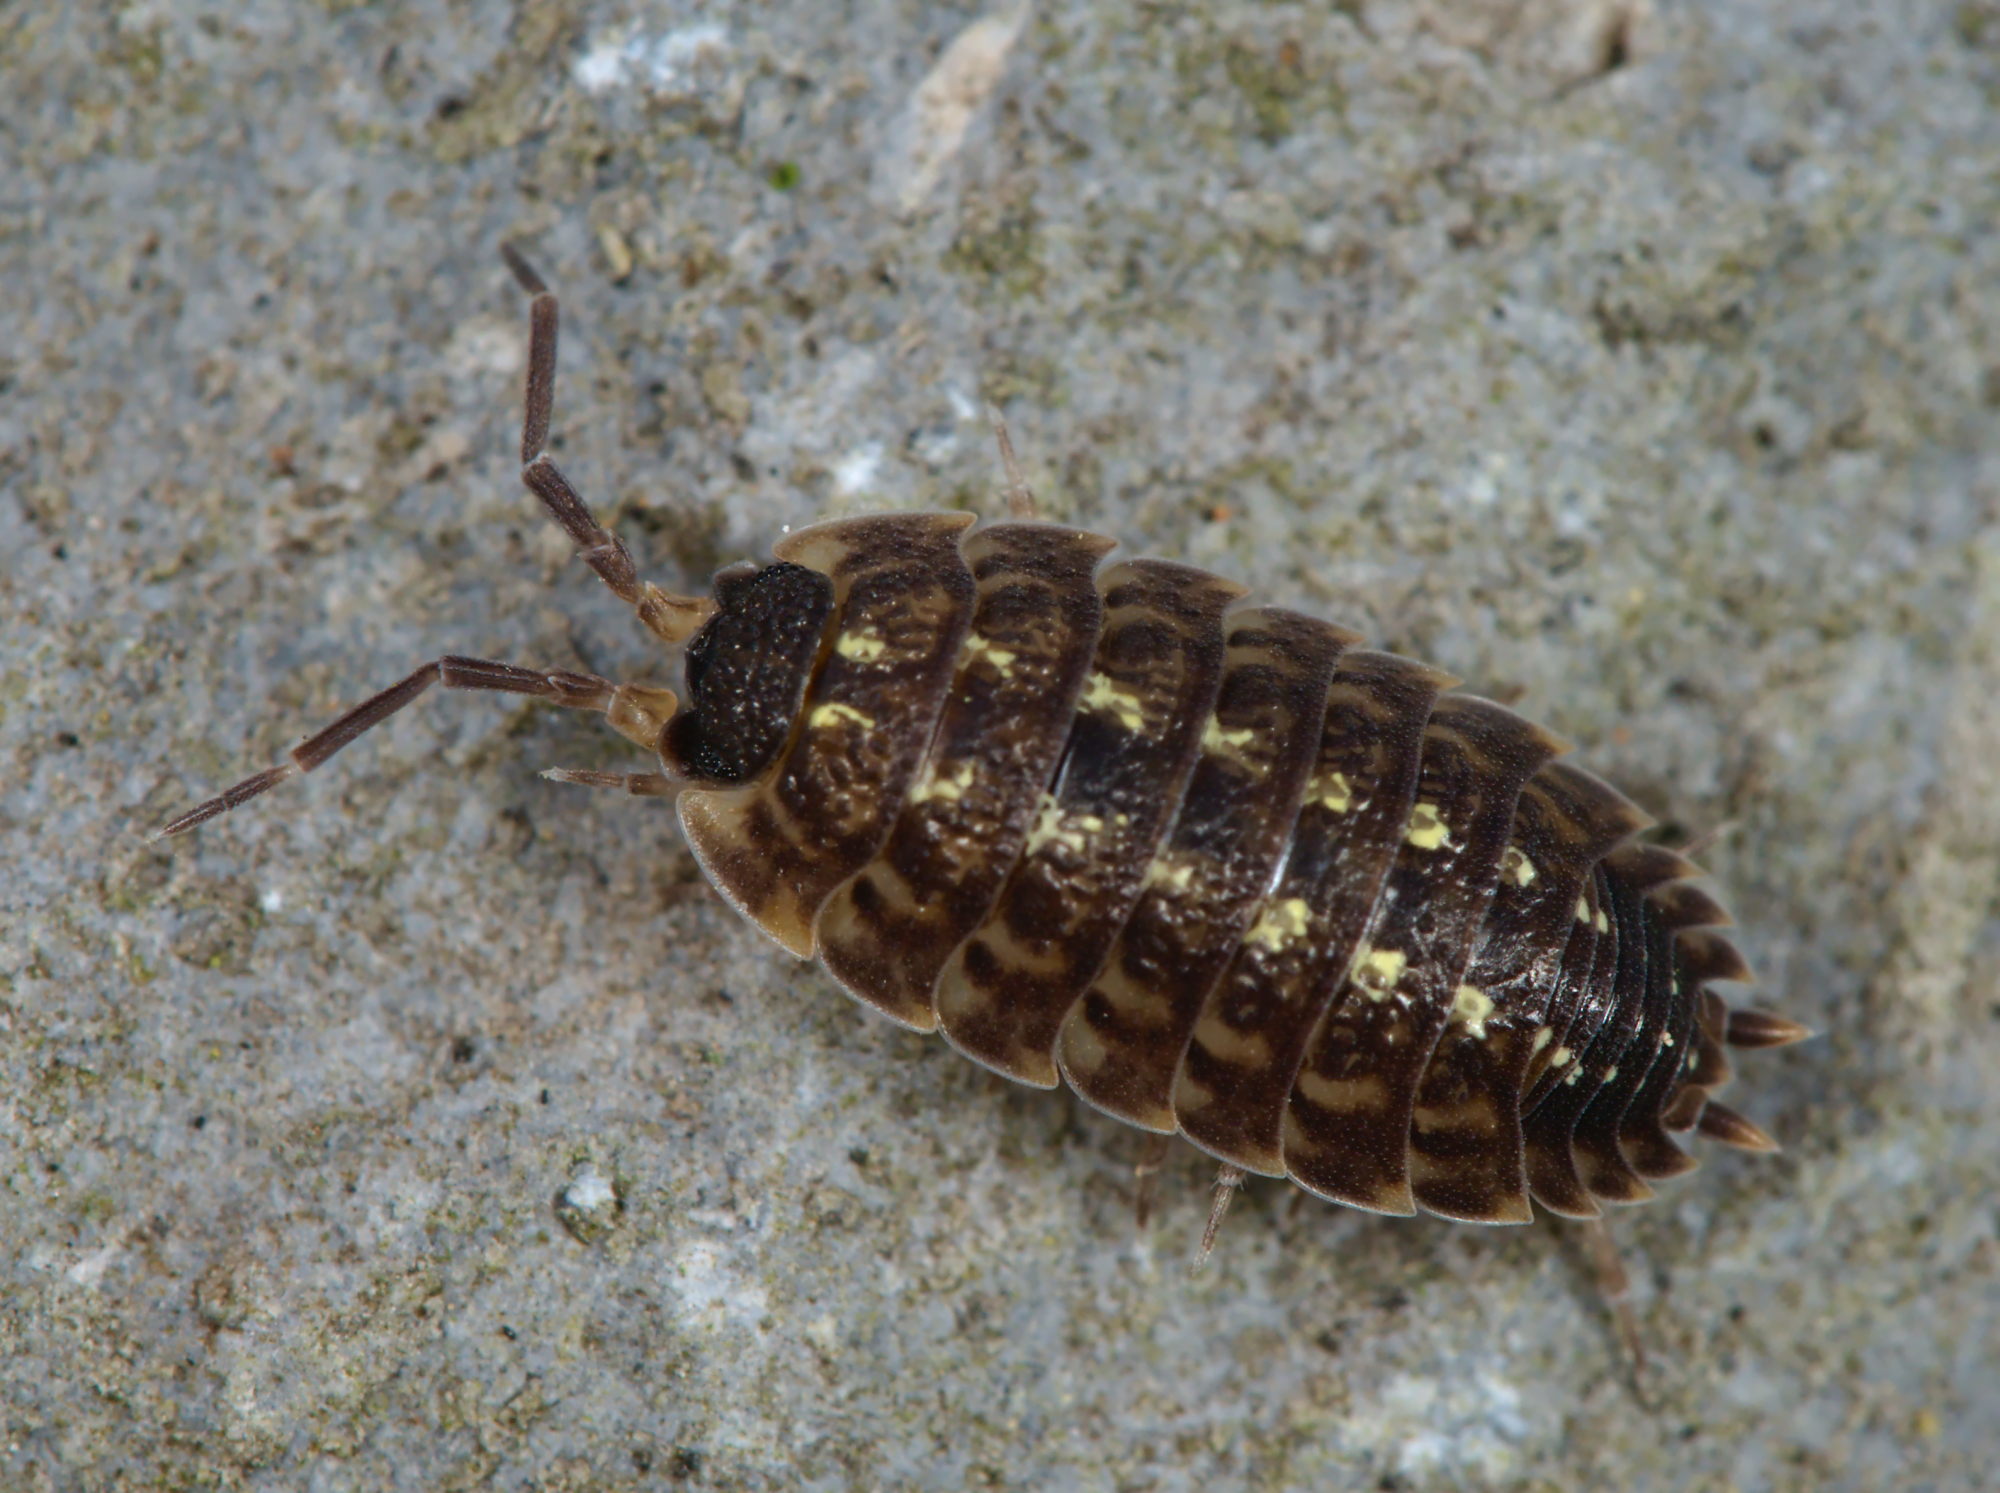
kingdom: Animalia
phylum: Arthropoda
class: Malacostraca
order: Isopoda
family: Porcellionidae
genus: Porcellio
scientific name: Porcellio spinicornis
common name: Painted woodlouse
